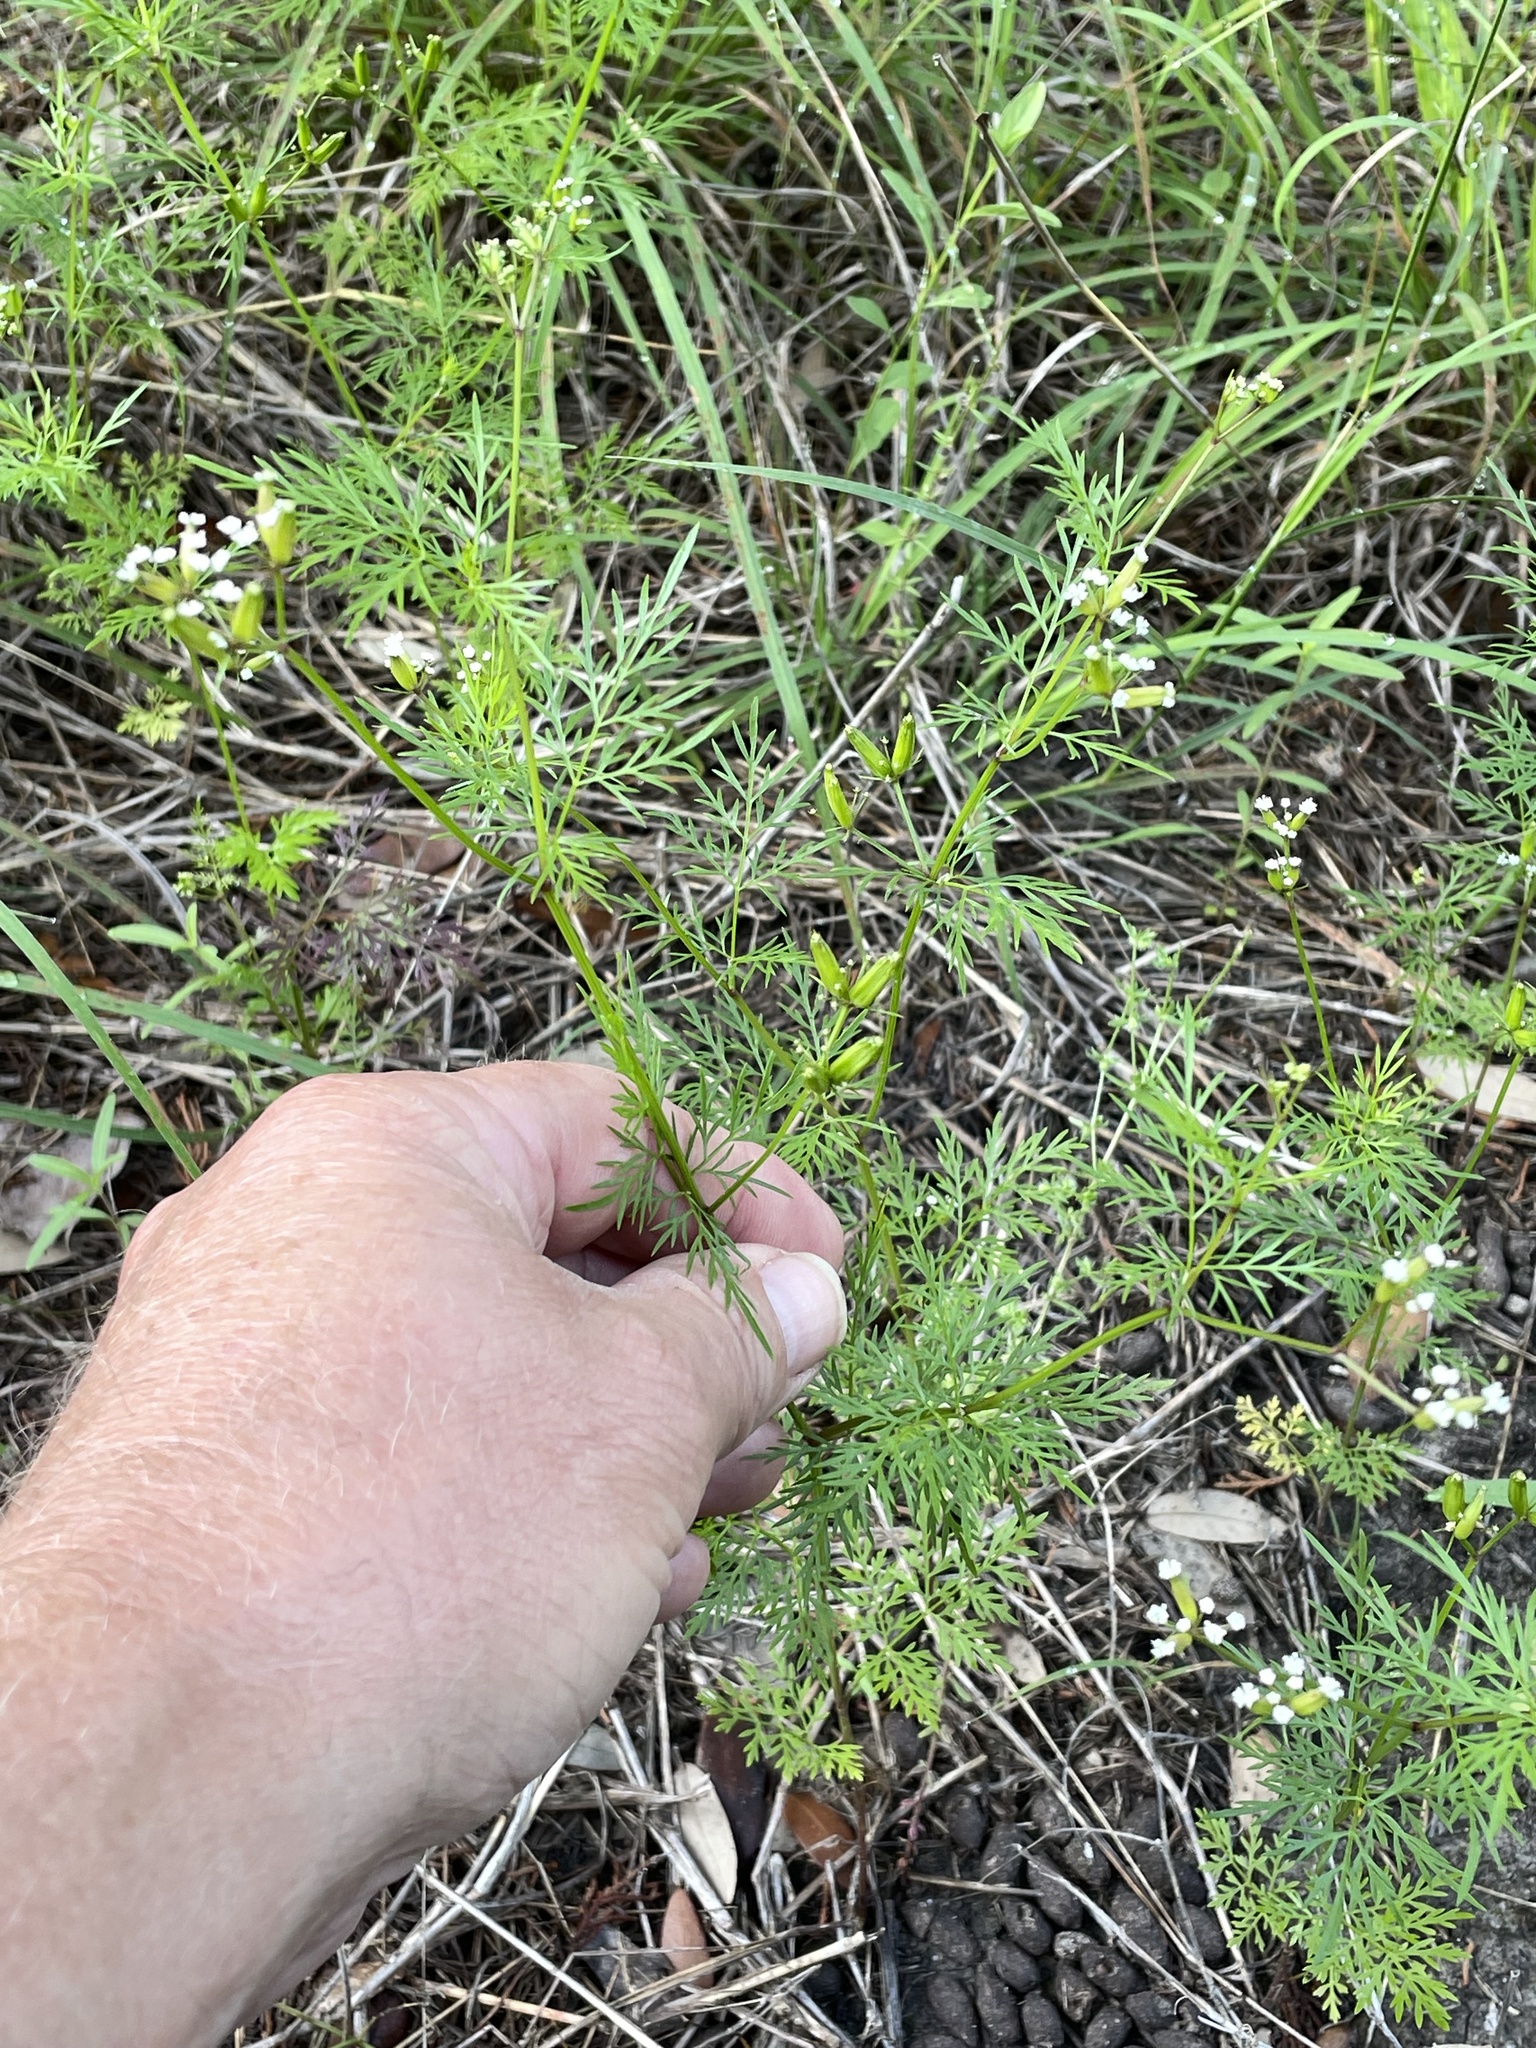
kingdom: Plantae
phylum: Tracheophyta
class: Magnoliopsida
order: Apiales
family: Apiaceae
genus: Trepocarpus
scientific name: Trepocarpus aethusae
